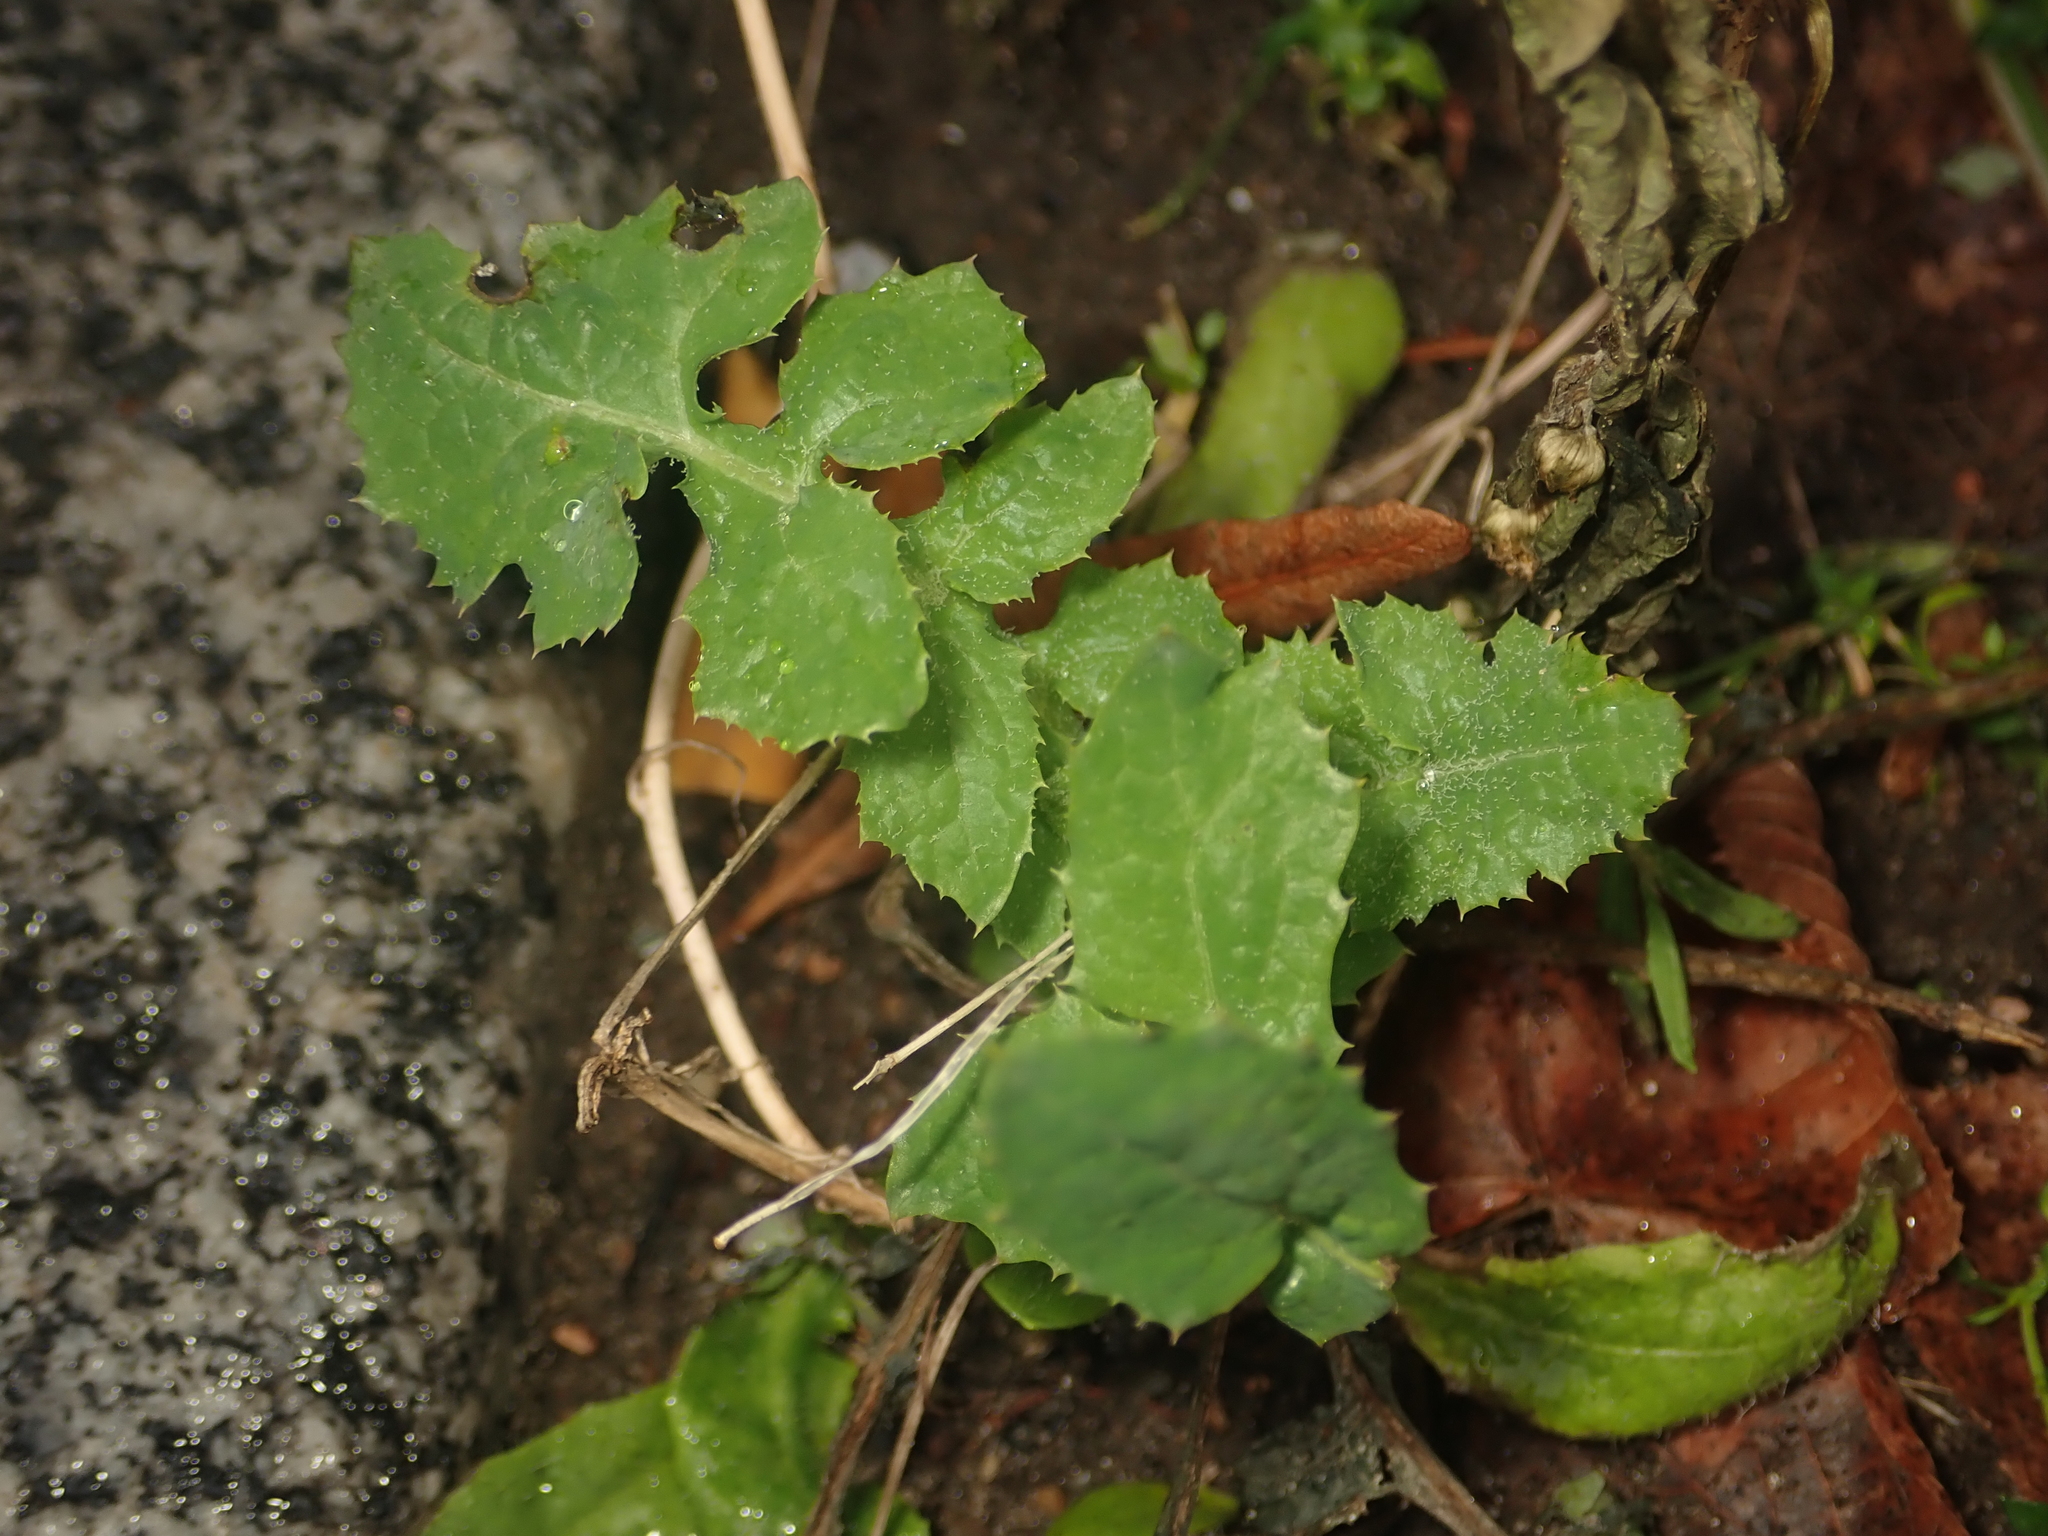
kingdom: Plantae
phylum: Tracheophyta
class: Magnoliopsida
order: Asterales
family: Asteraceae
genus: Sonchus
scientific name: Sonchus oleraceus
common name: Common sowthistle
